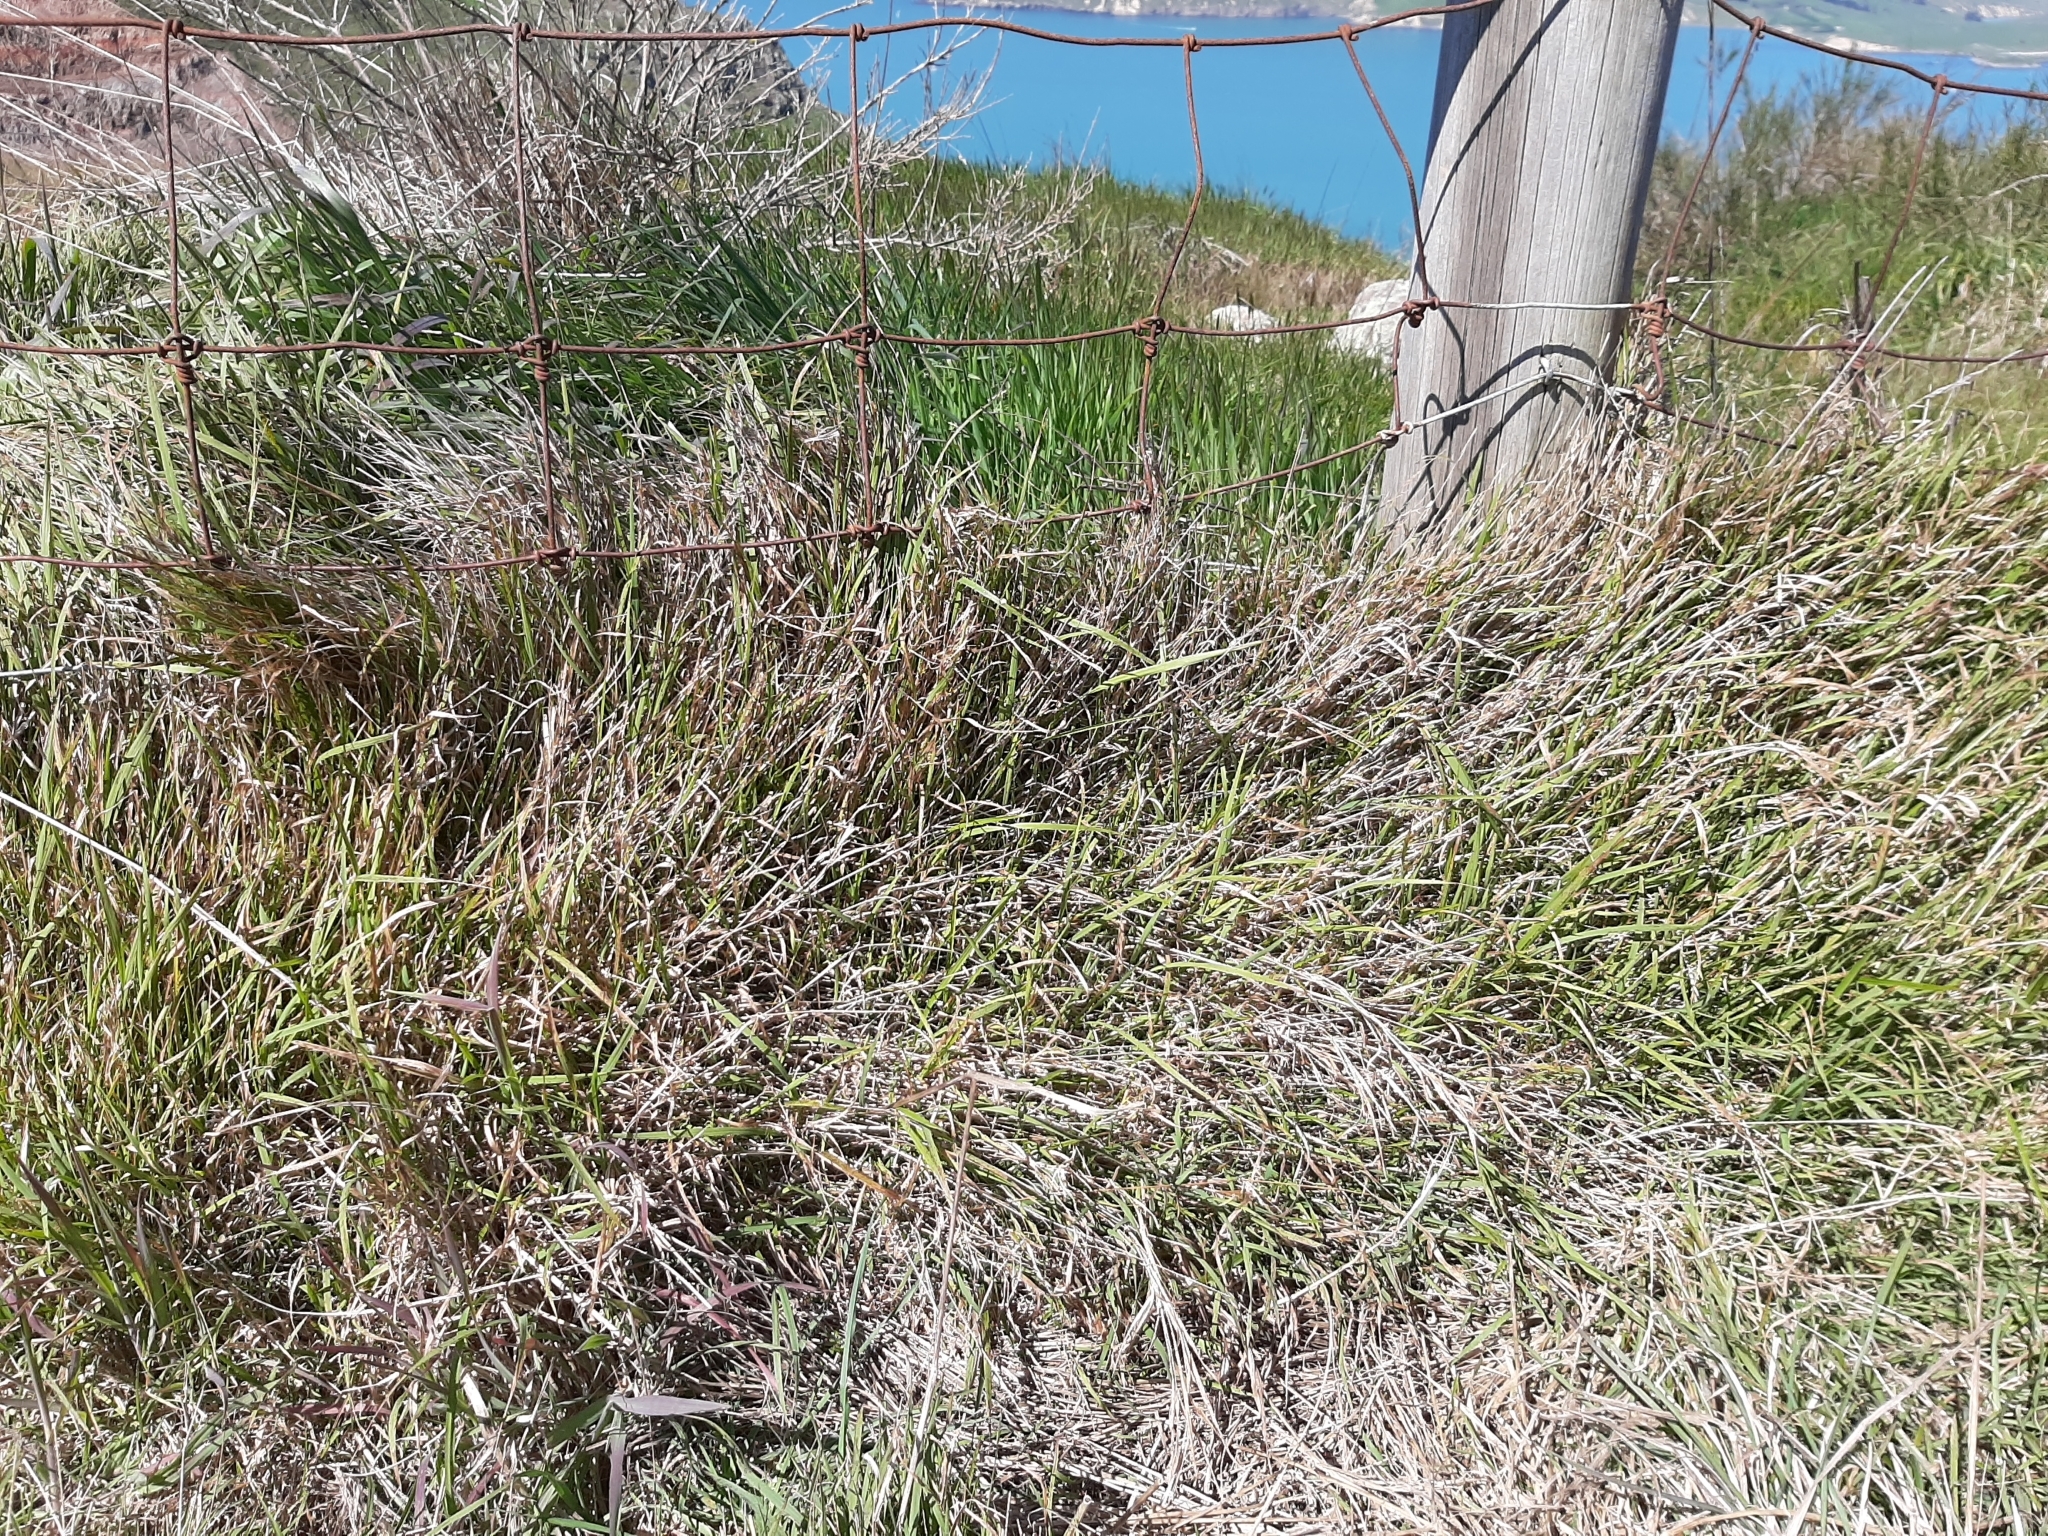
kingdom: Plantae
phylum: Tracheophyta
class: Liliopsida
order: Poales
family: Poaceae
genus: Microlaena
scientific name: Microlaena stipoides
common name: Meadow ricegrass
